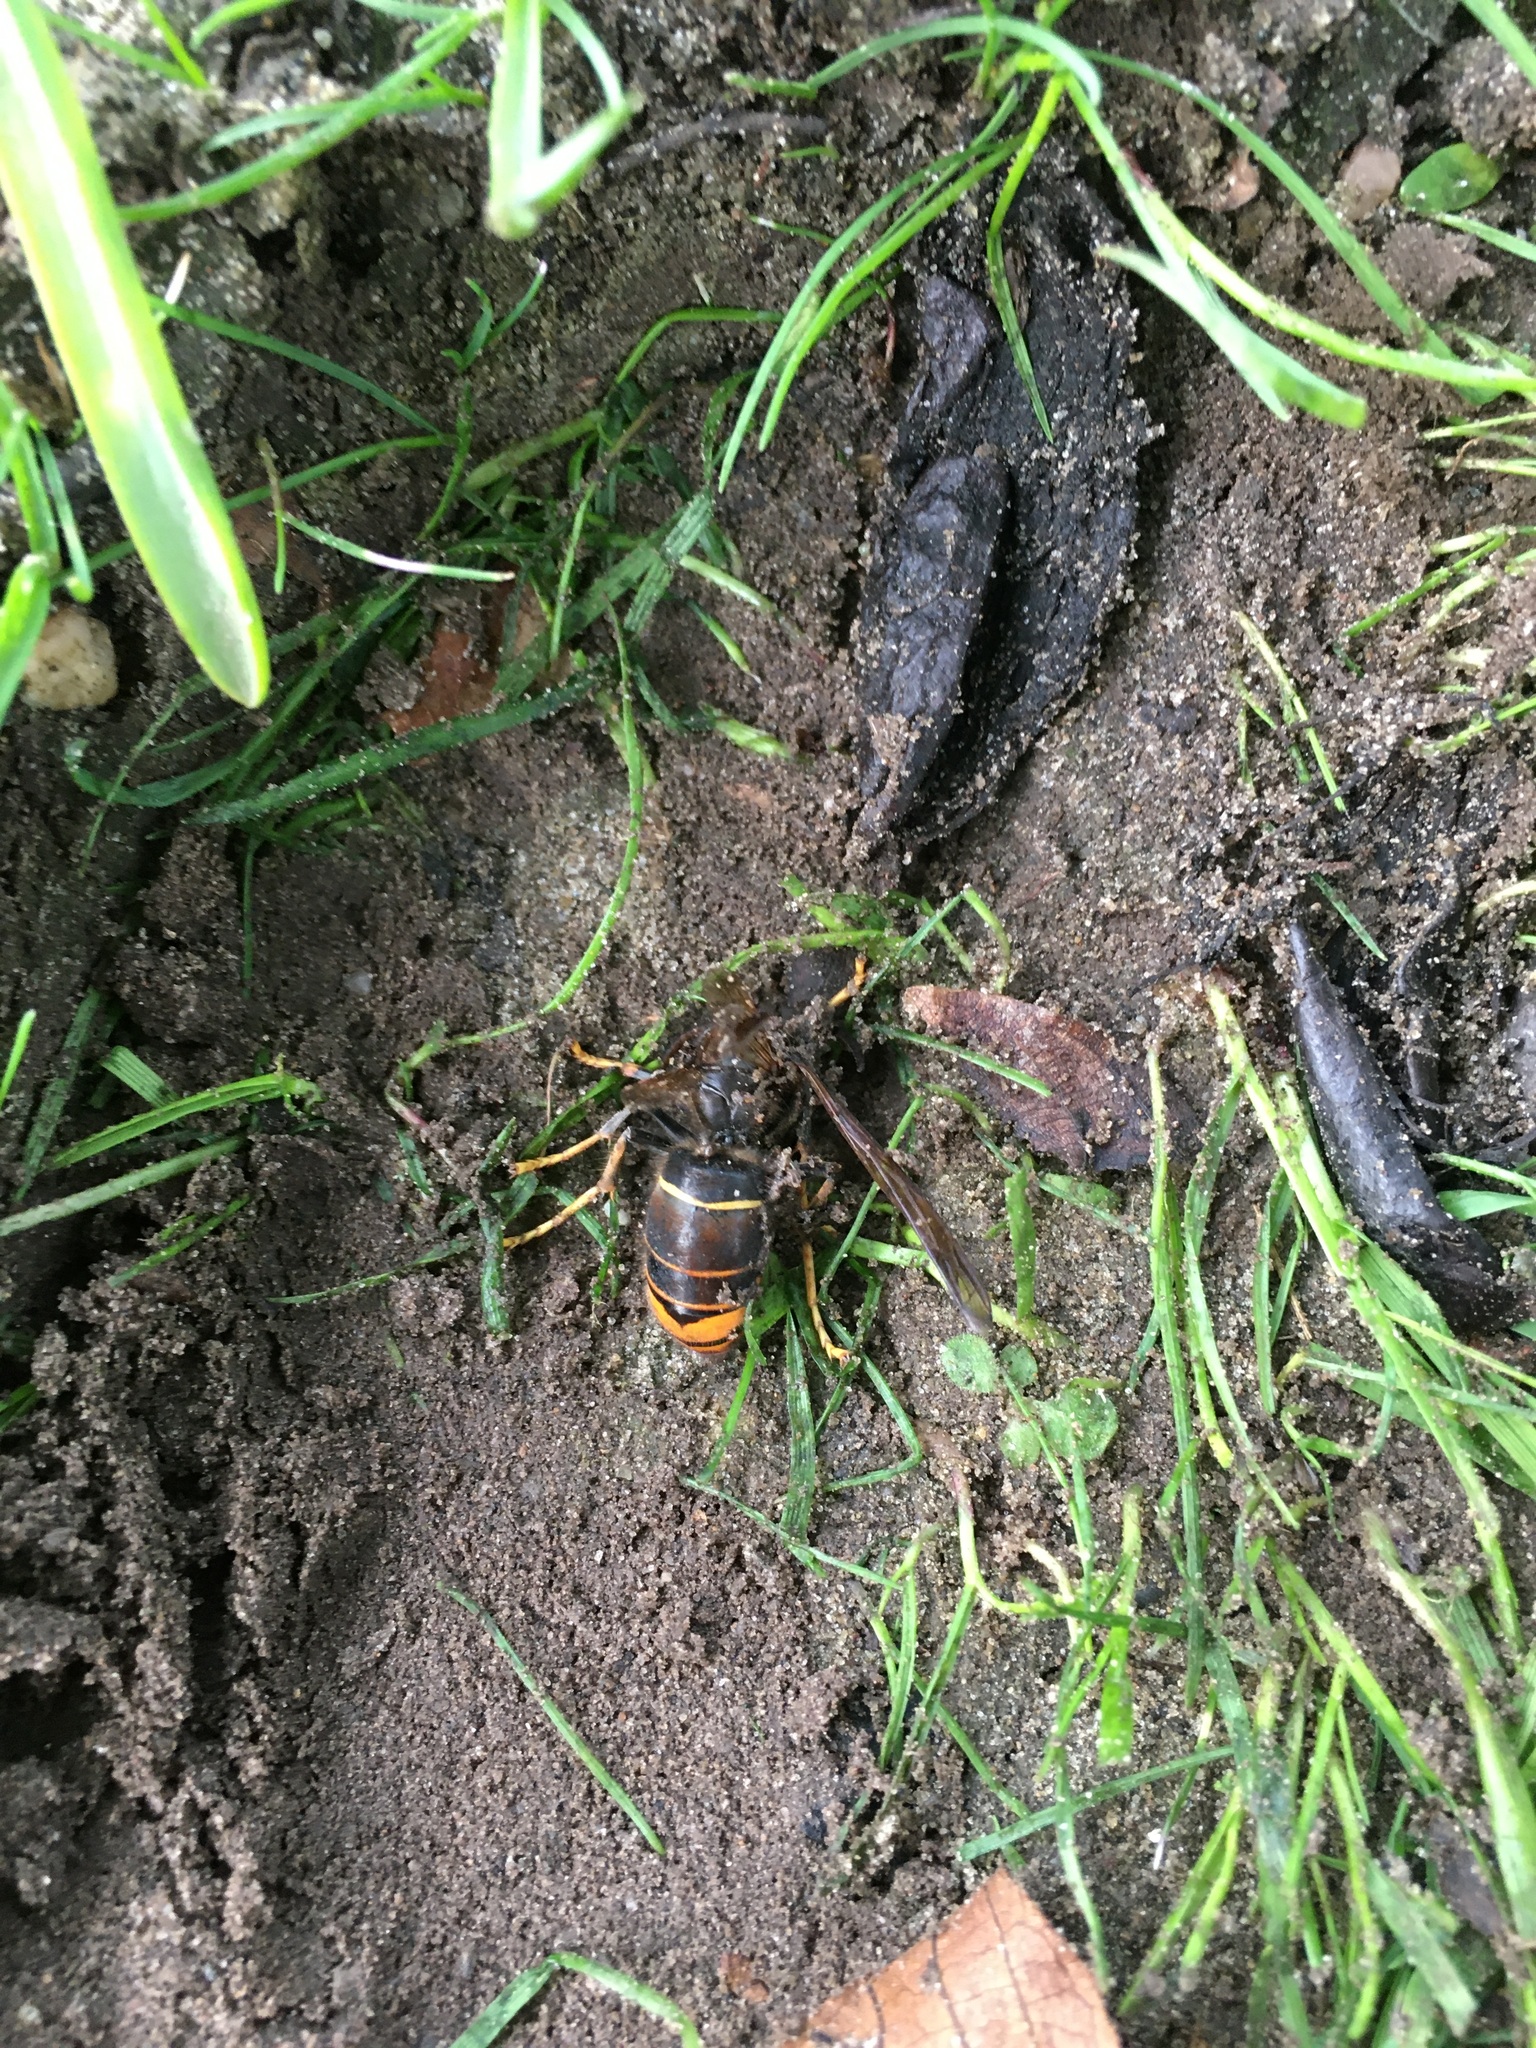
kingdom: Animalia
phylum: Arthropoda
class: Insecta
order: Hymenoptera
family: Vespidae
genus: Vespa
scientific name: Vespa velutina
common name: Asian hornet
